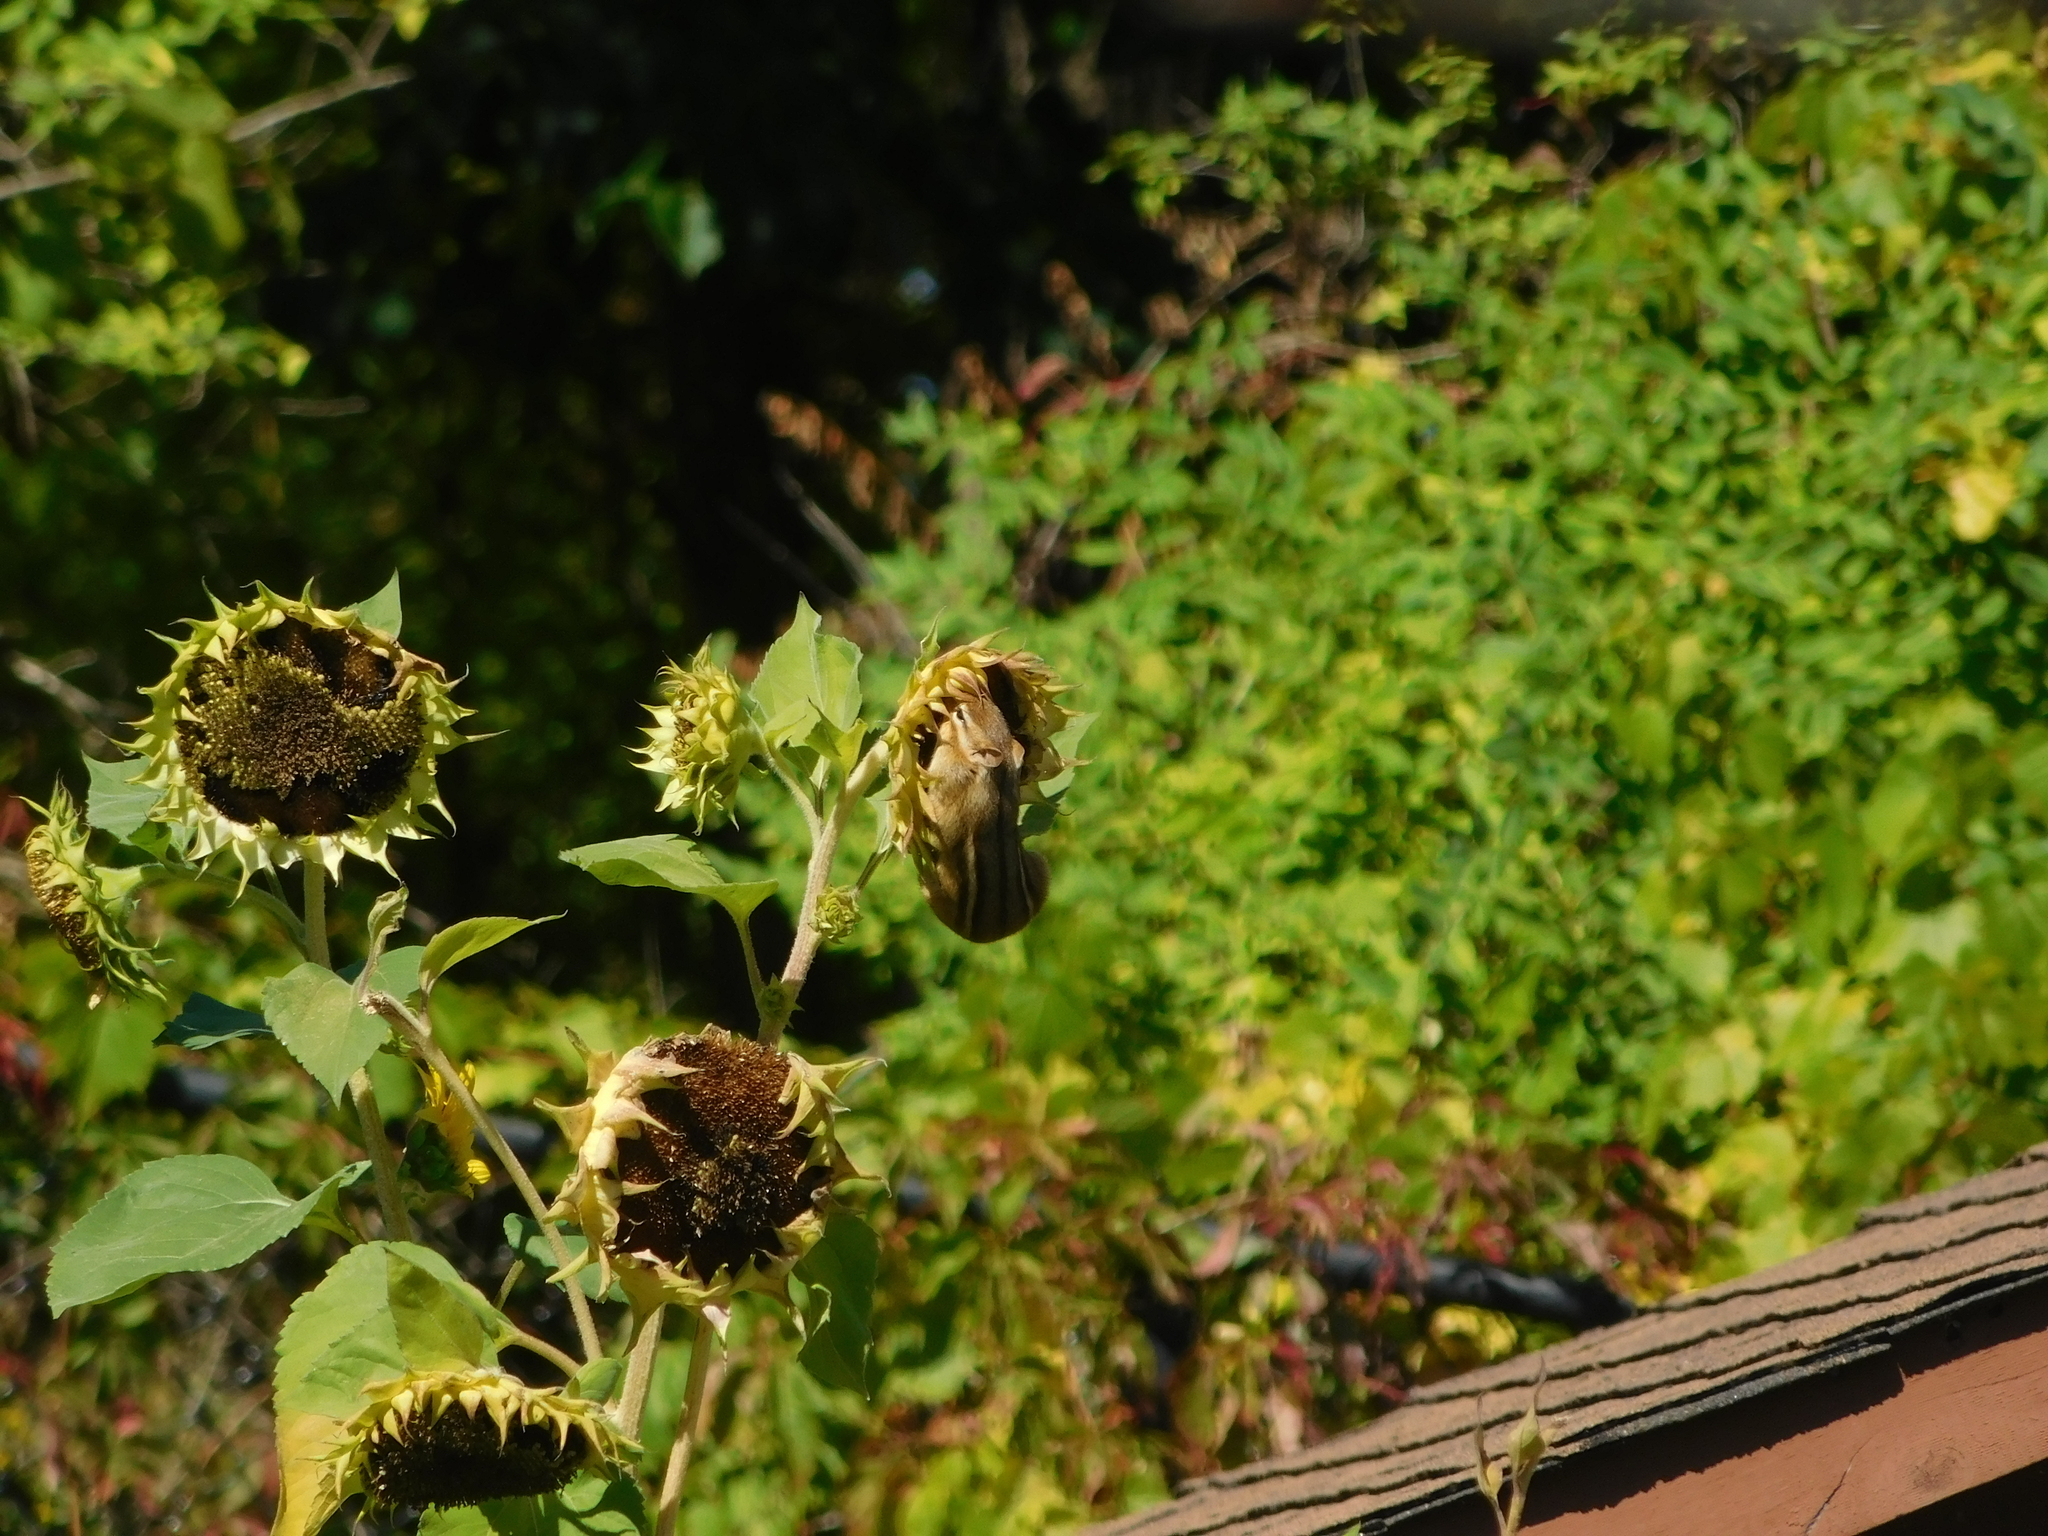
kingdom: Animalia
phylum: Chordata
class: Mammalia
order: Rodentia
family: Sciuridae
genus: Tamias
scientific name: Tamias striatus
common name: Eastern chipmunk
